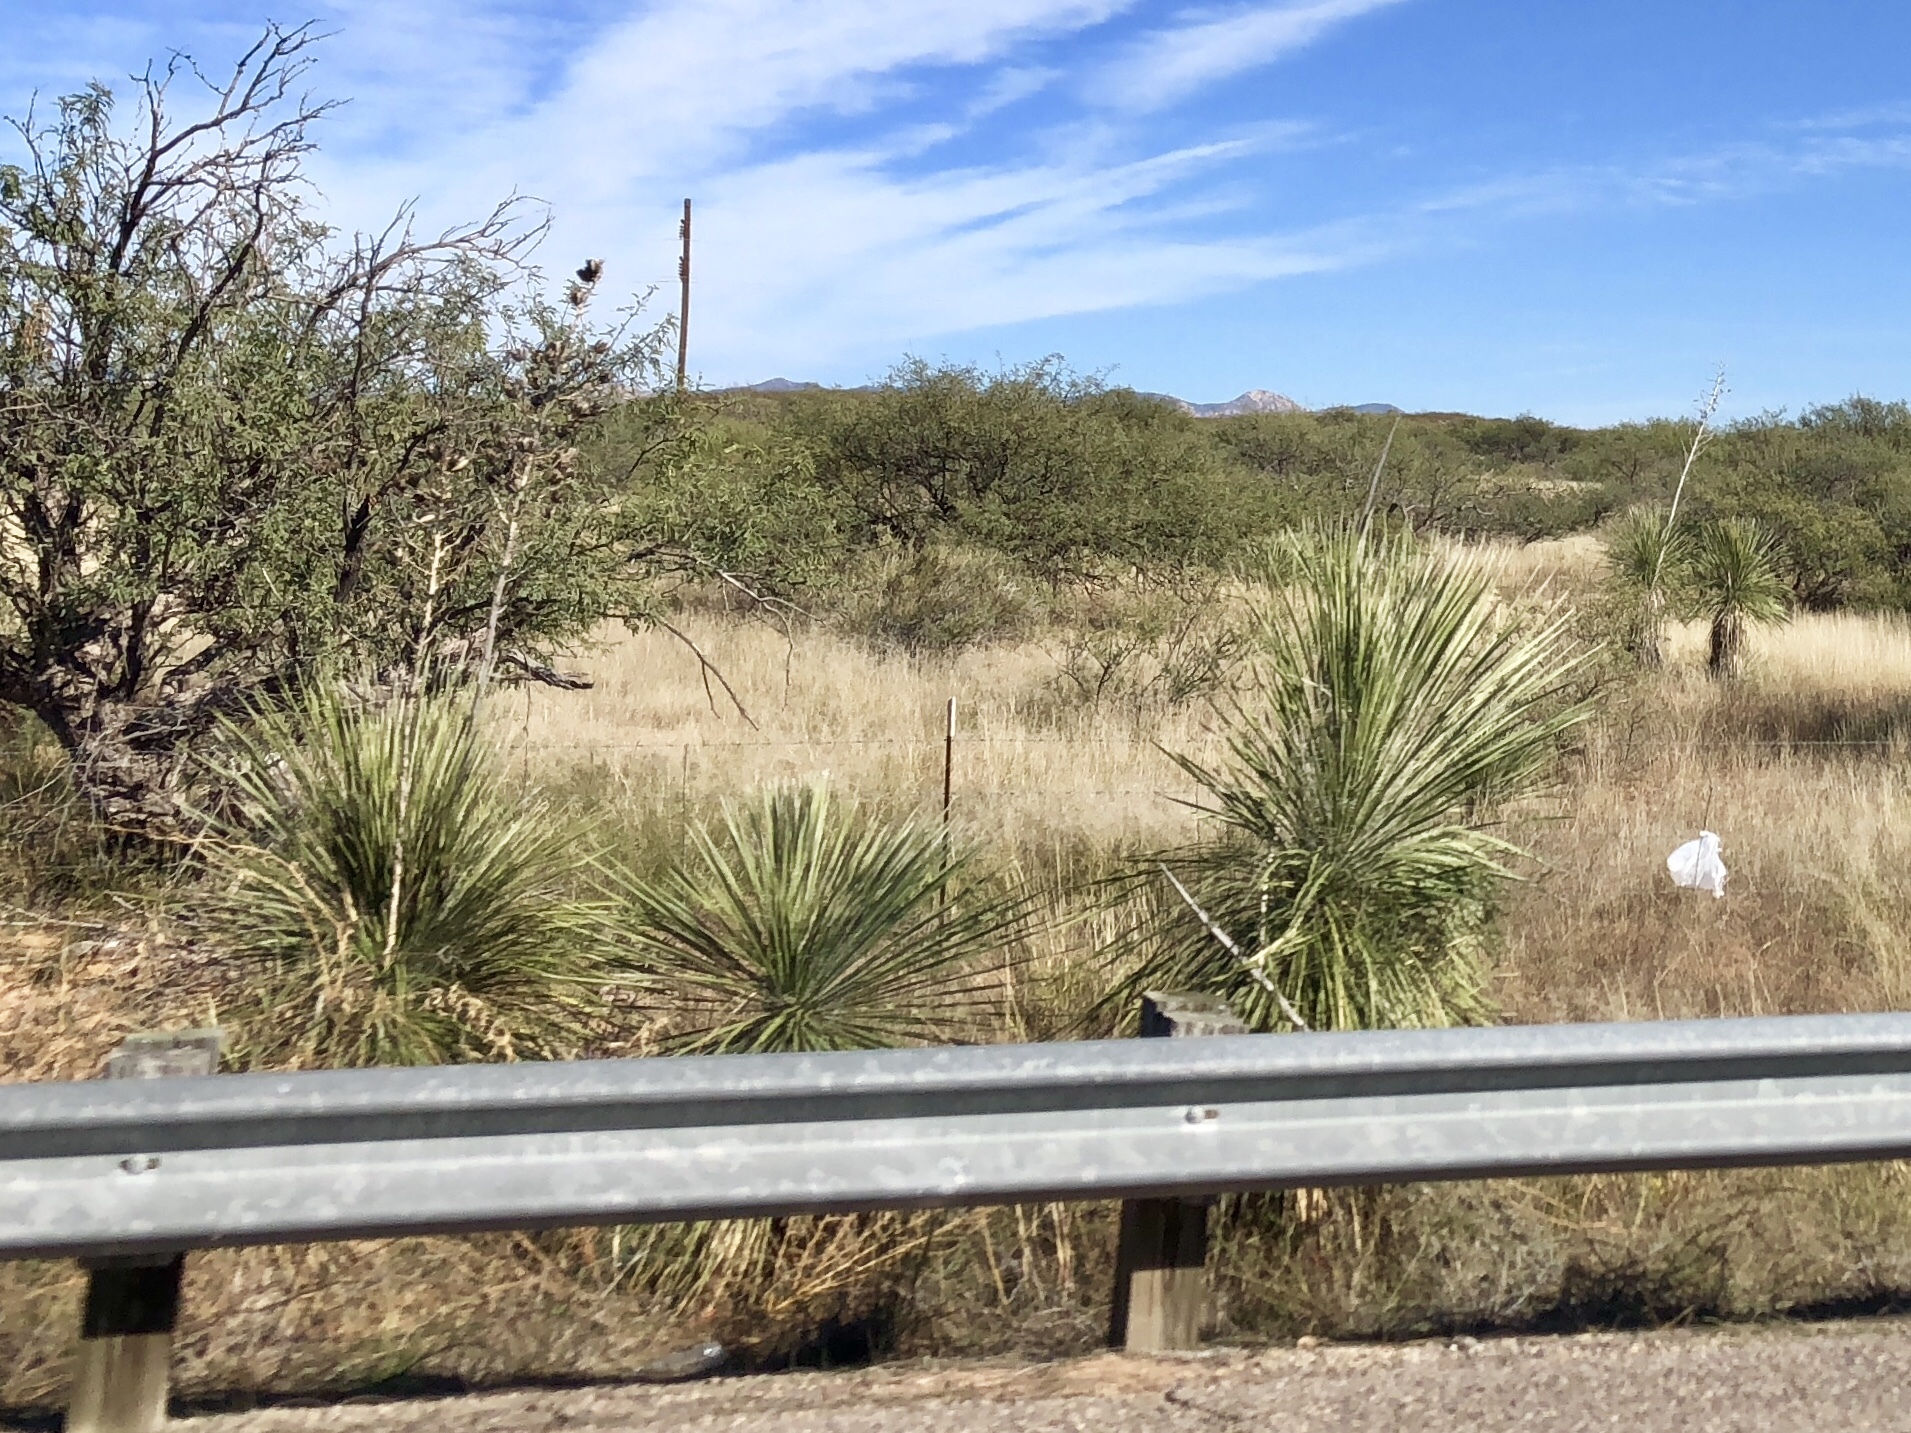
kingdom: Plantae
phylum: Tracheophyta
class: Liliopsida
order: Asparagales
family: Asparagaceae
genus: Yucca
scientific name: Yucca elata
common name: Palmella
